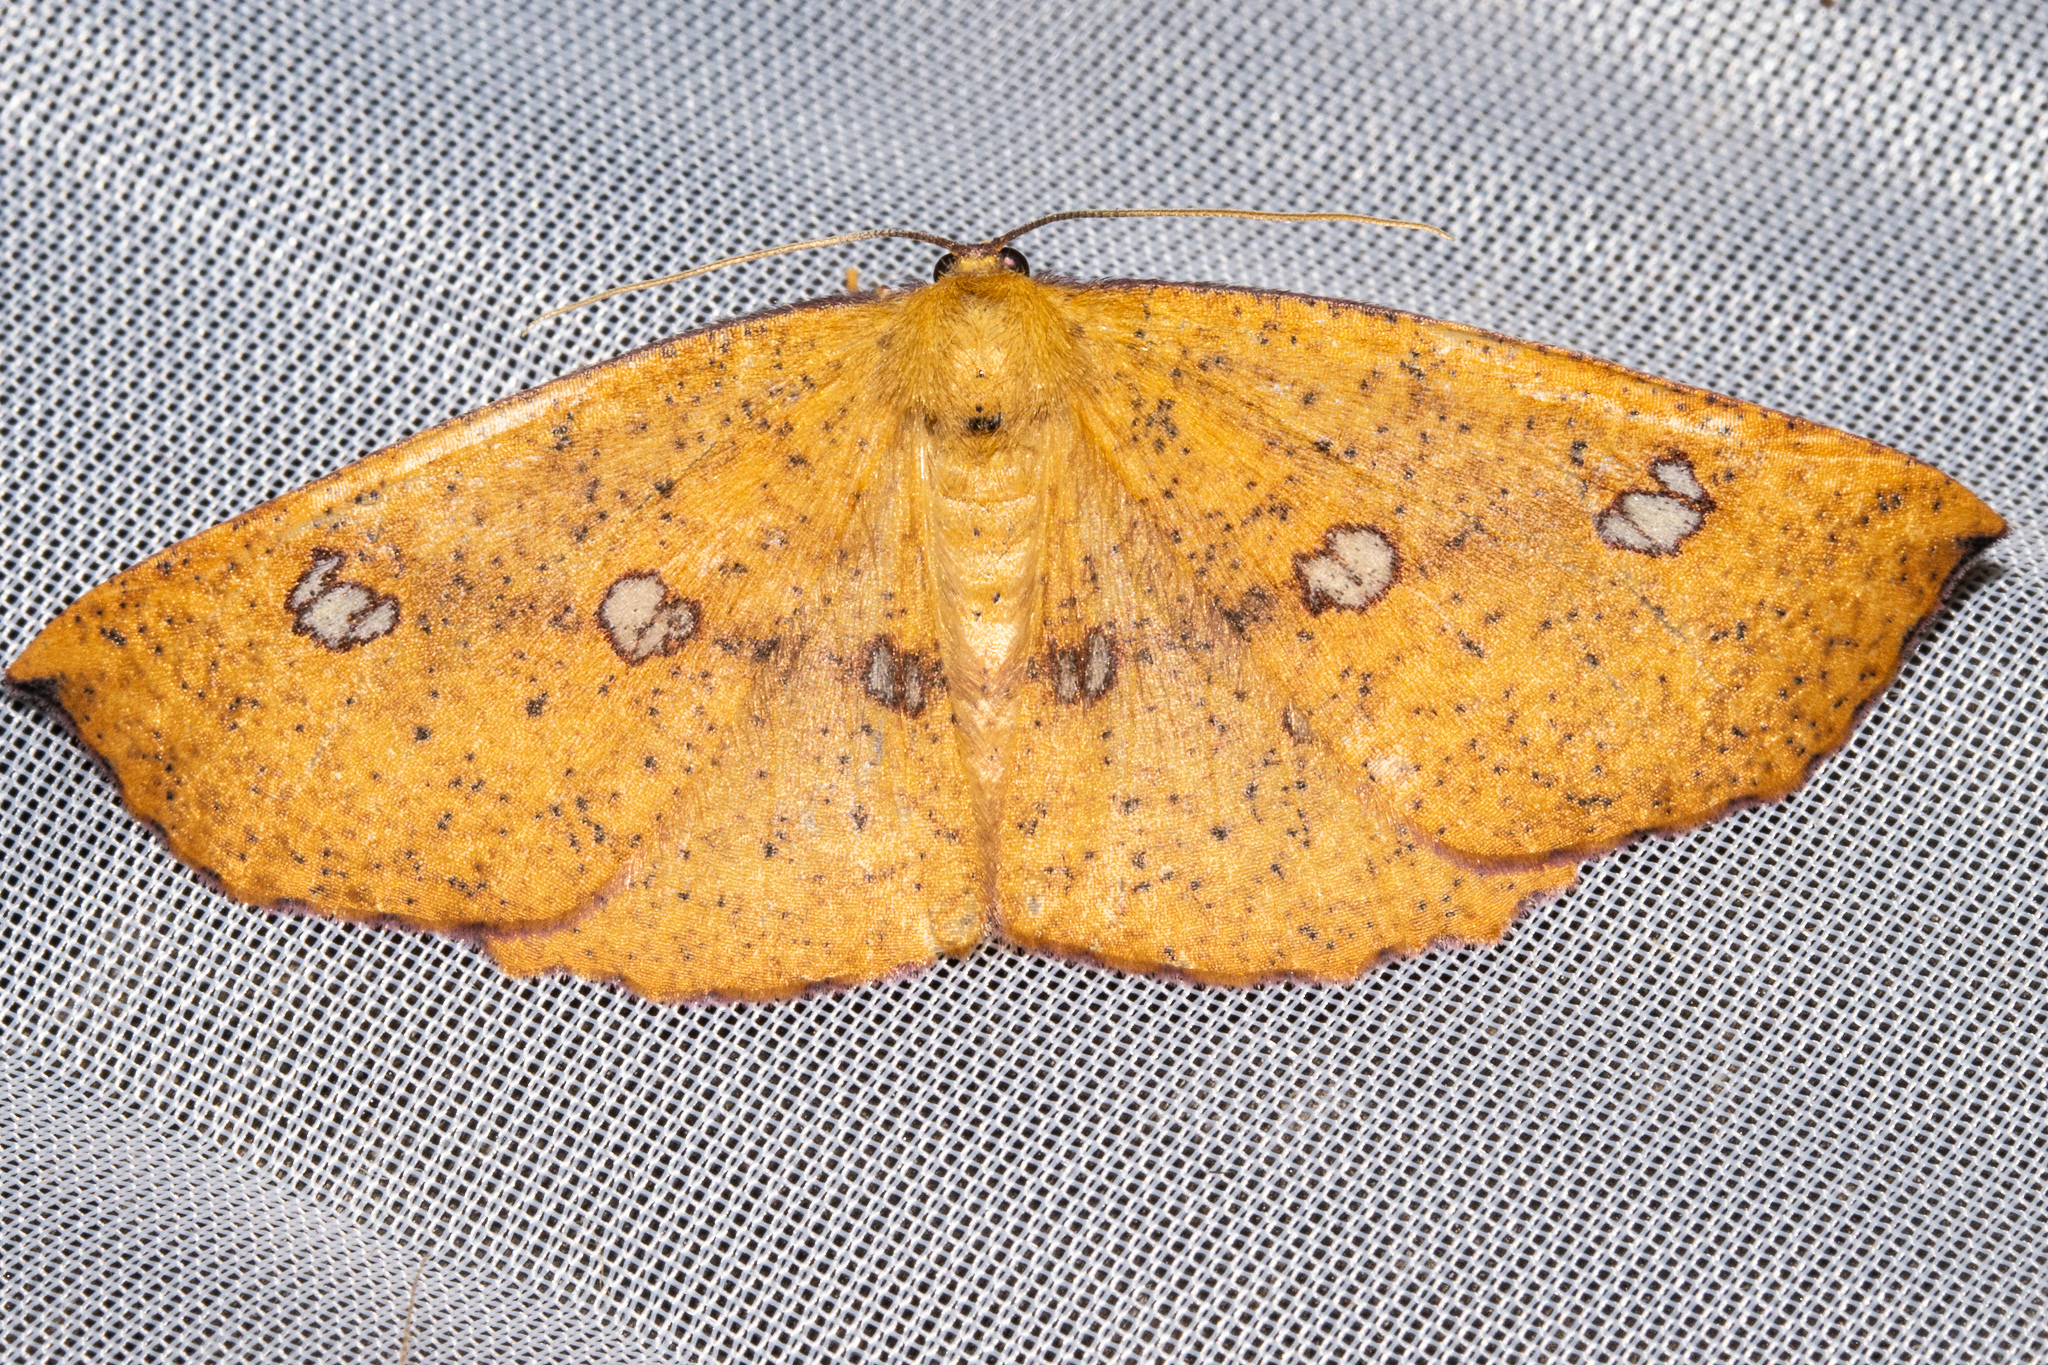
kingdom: Animalia
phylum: Arthropoda
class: Insecta
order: Lepidoptera
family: Geometridae
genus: Xyridacma
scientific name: Xyridacma alectoraria
